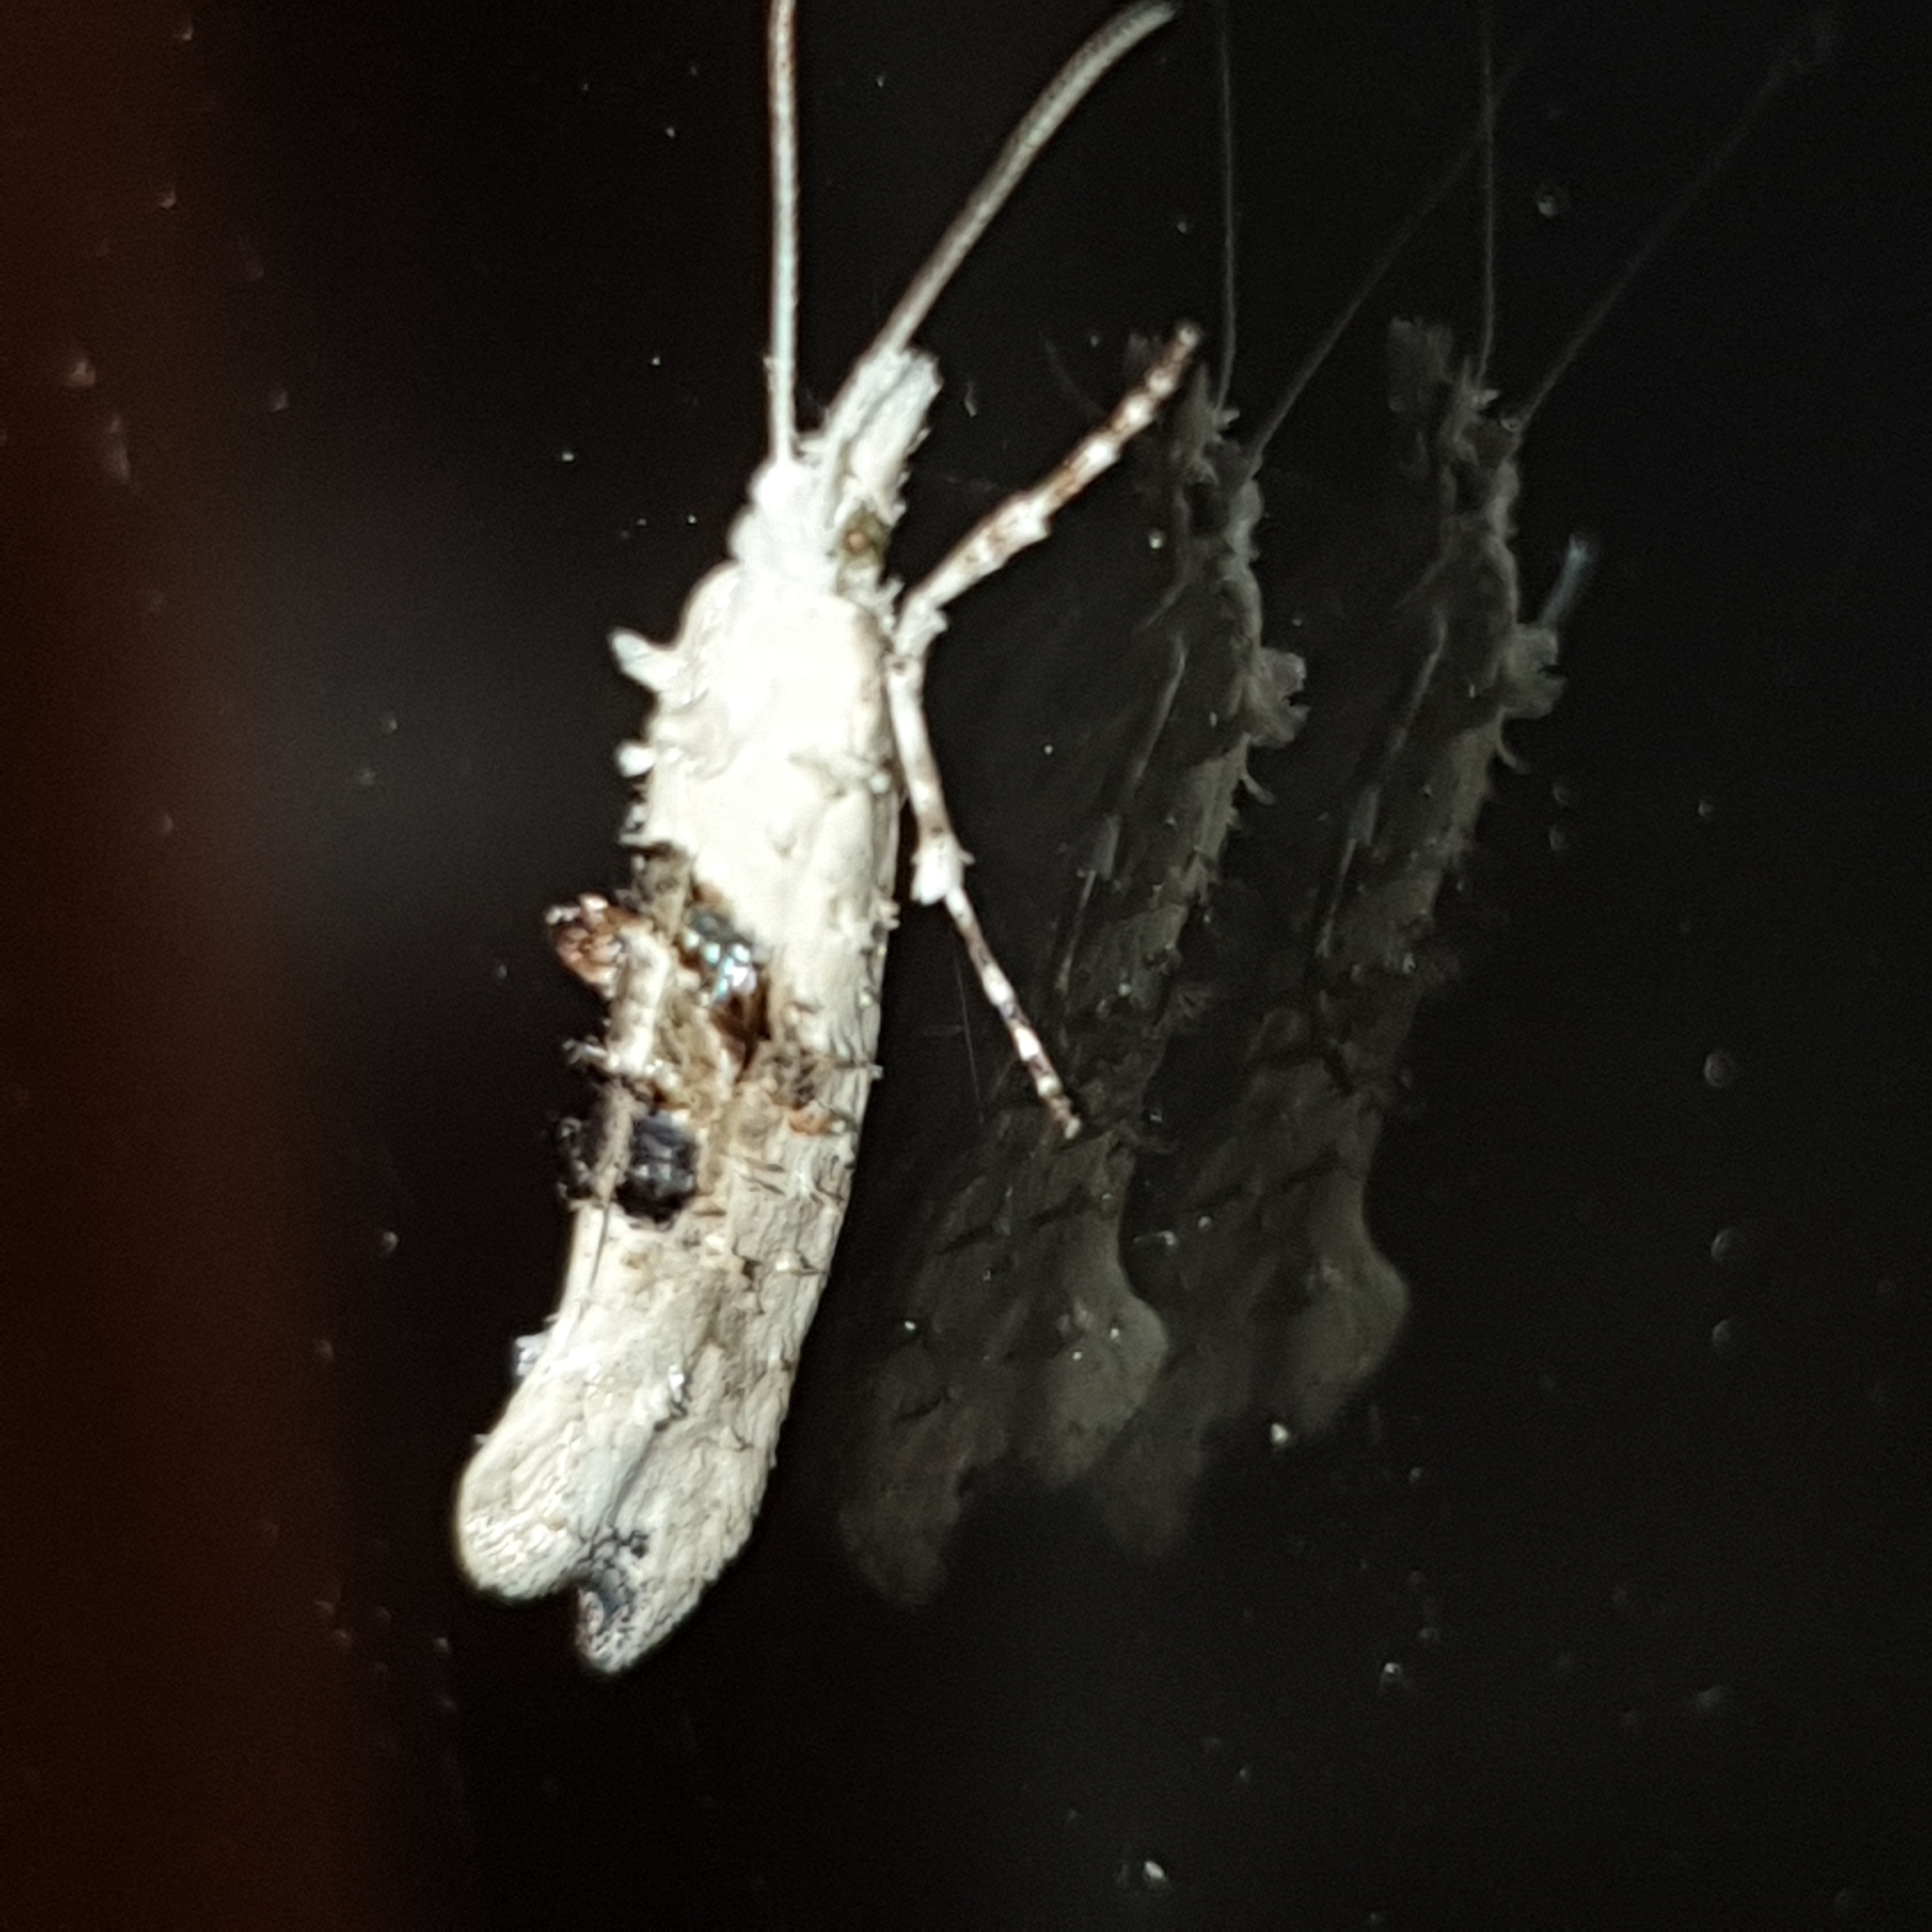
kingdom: Animalia
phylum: Arthropoda
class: Insecta
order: Lepidoptera
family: Plutellidae
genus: Ypsolophus
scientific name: Ypsolophus asperella
